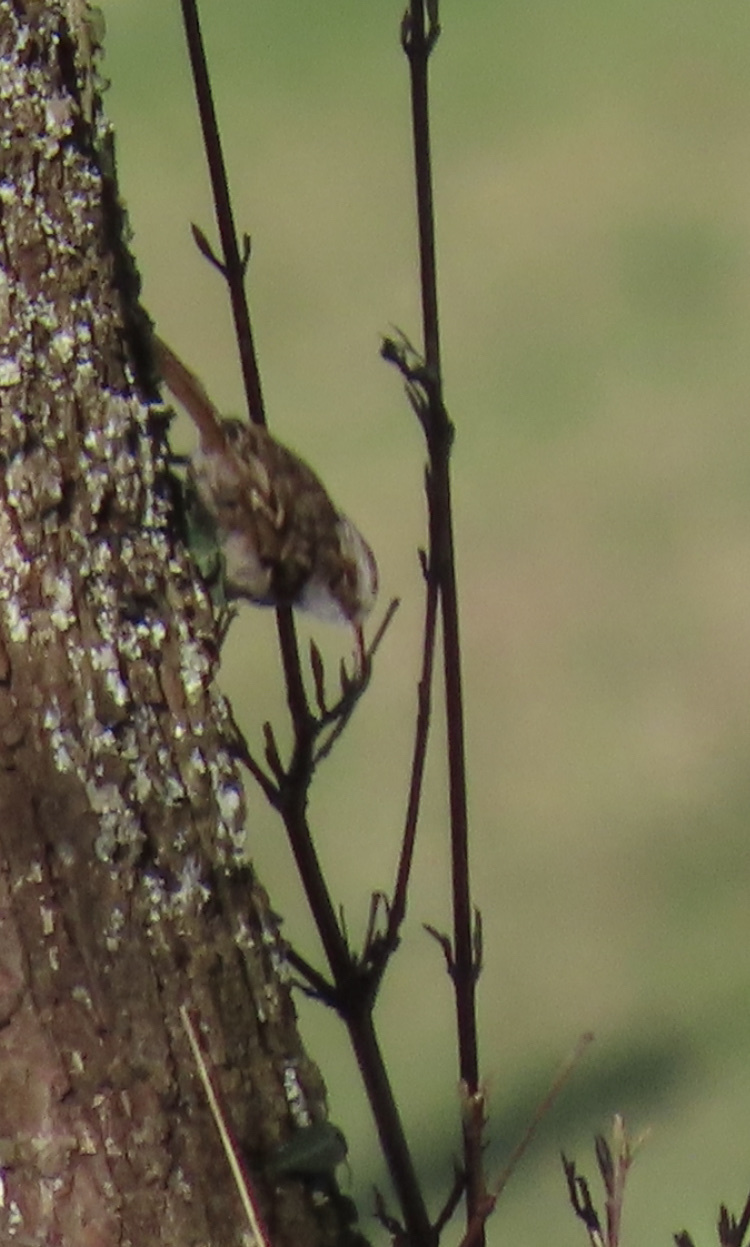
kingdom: Animalia
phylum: Chordata
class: Aves
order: Passeriformes
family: Certhiidae
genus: Certhia
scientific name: Certhia brachydactyla
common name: Short-toed treecreeper
